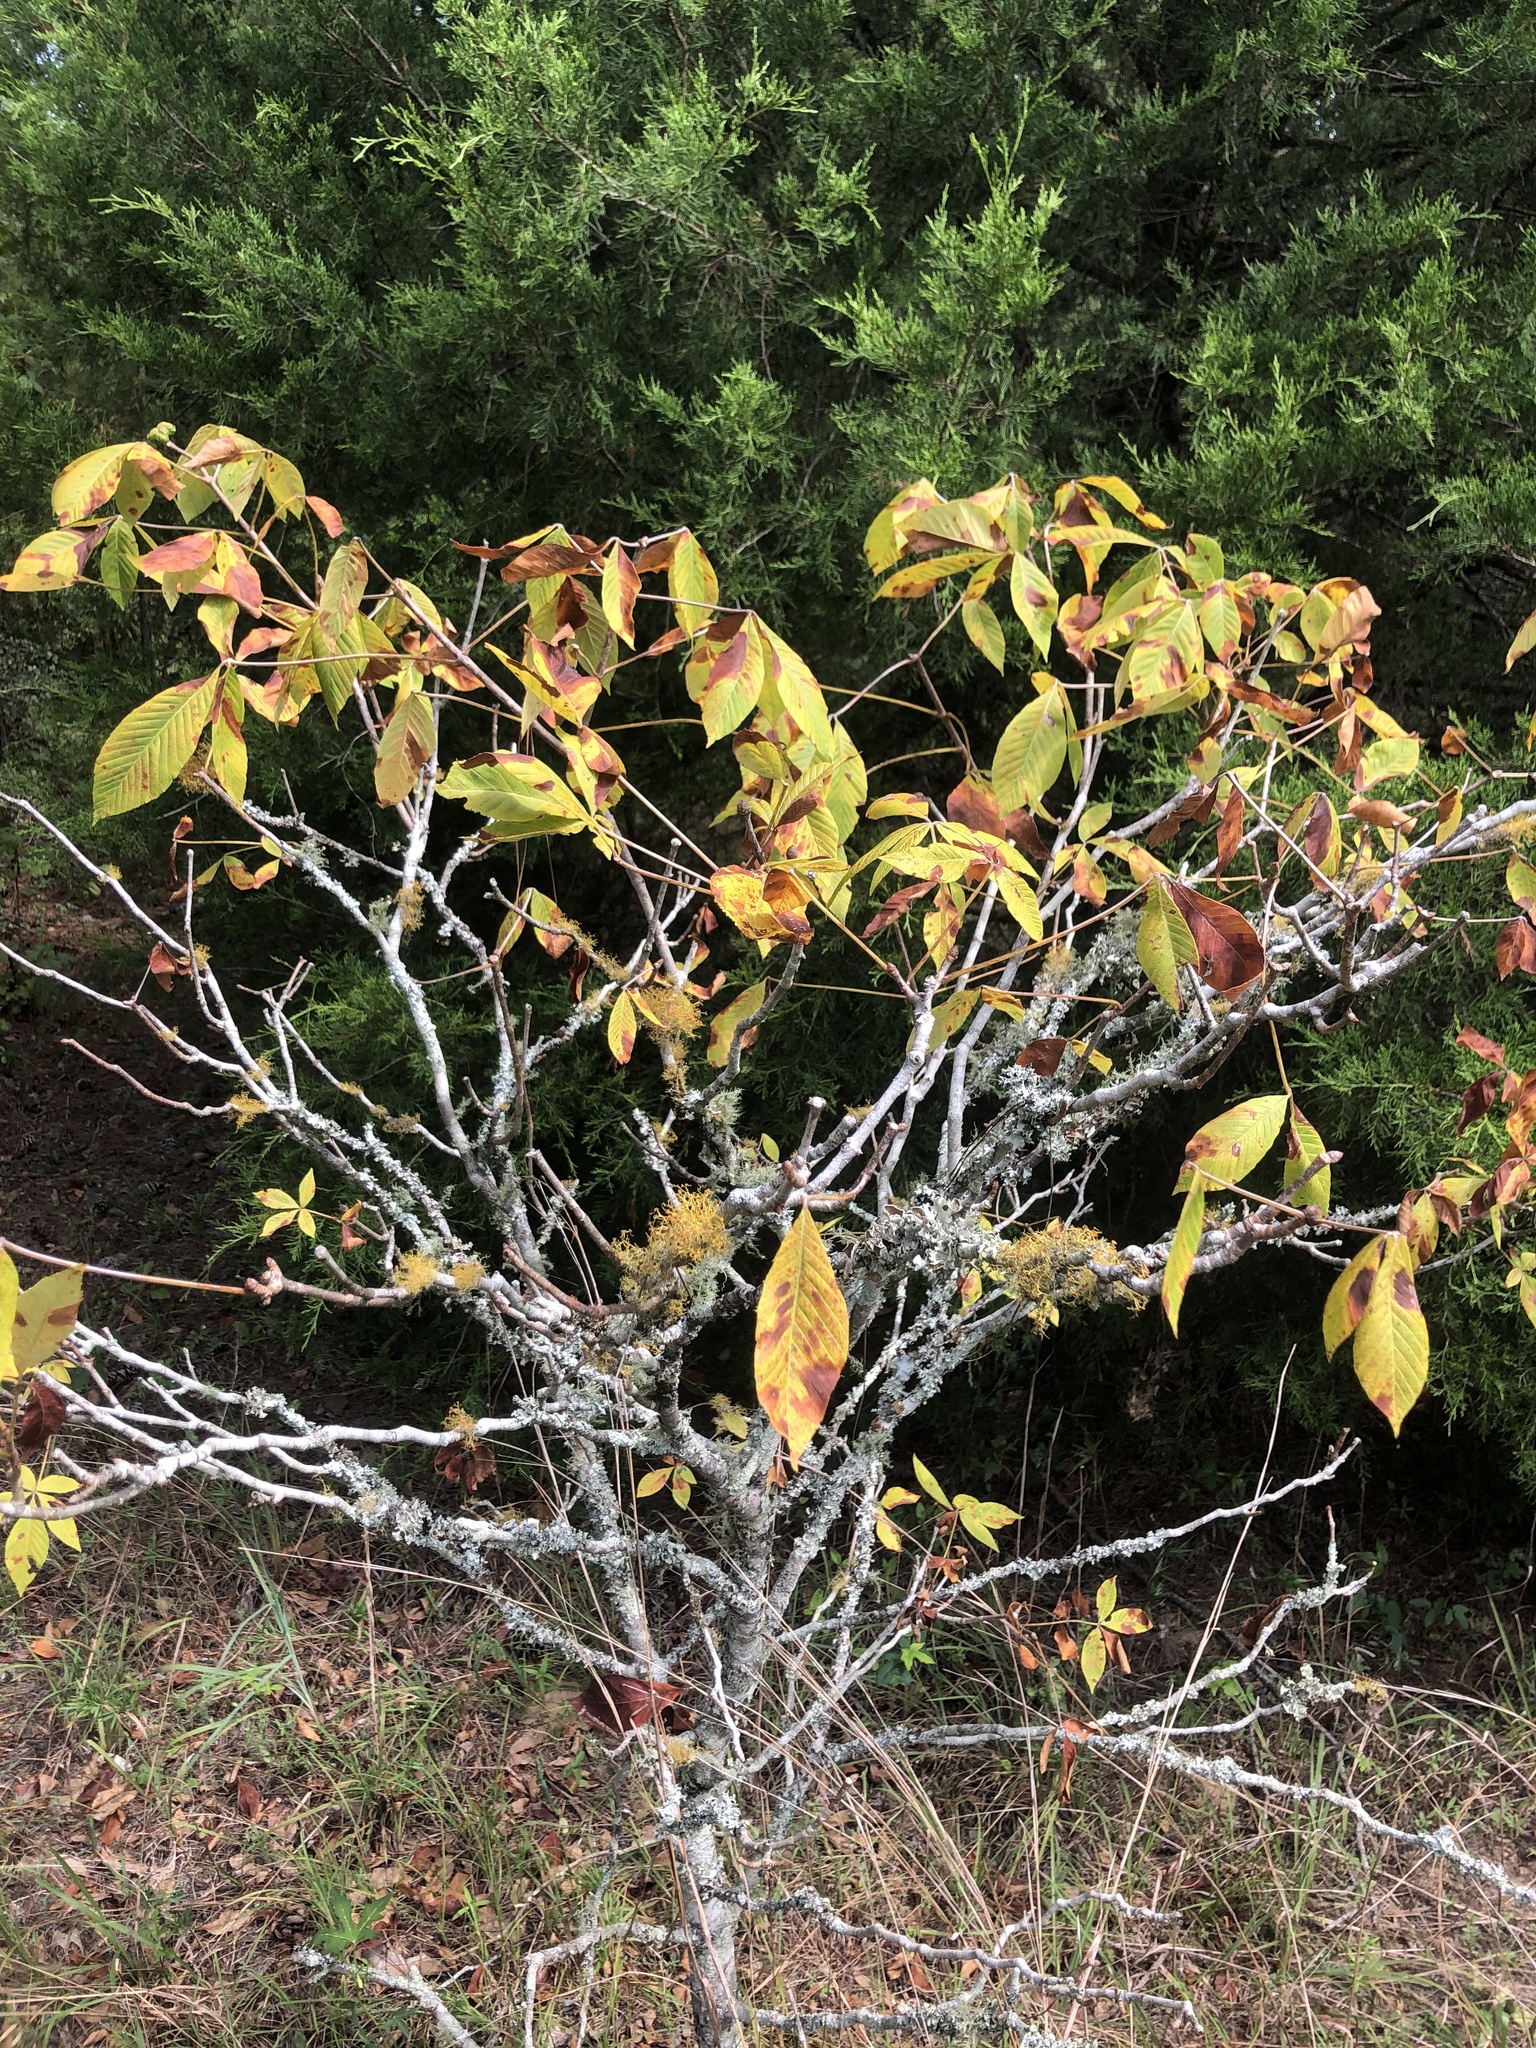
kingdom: Plantae
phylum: Tracheophyta
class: Magnoliopsida
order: Sapindales
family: Sapindaceae
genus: Aesculus
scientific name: Aesculus pavia
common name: Red buckeye
